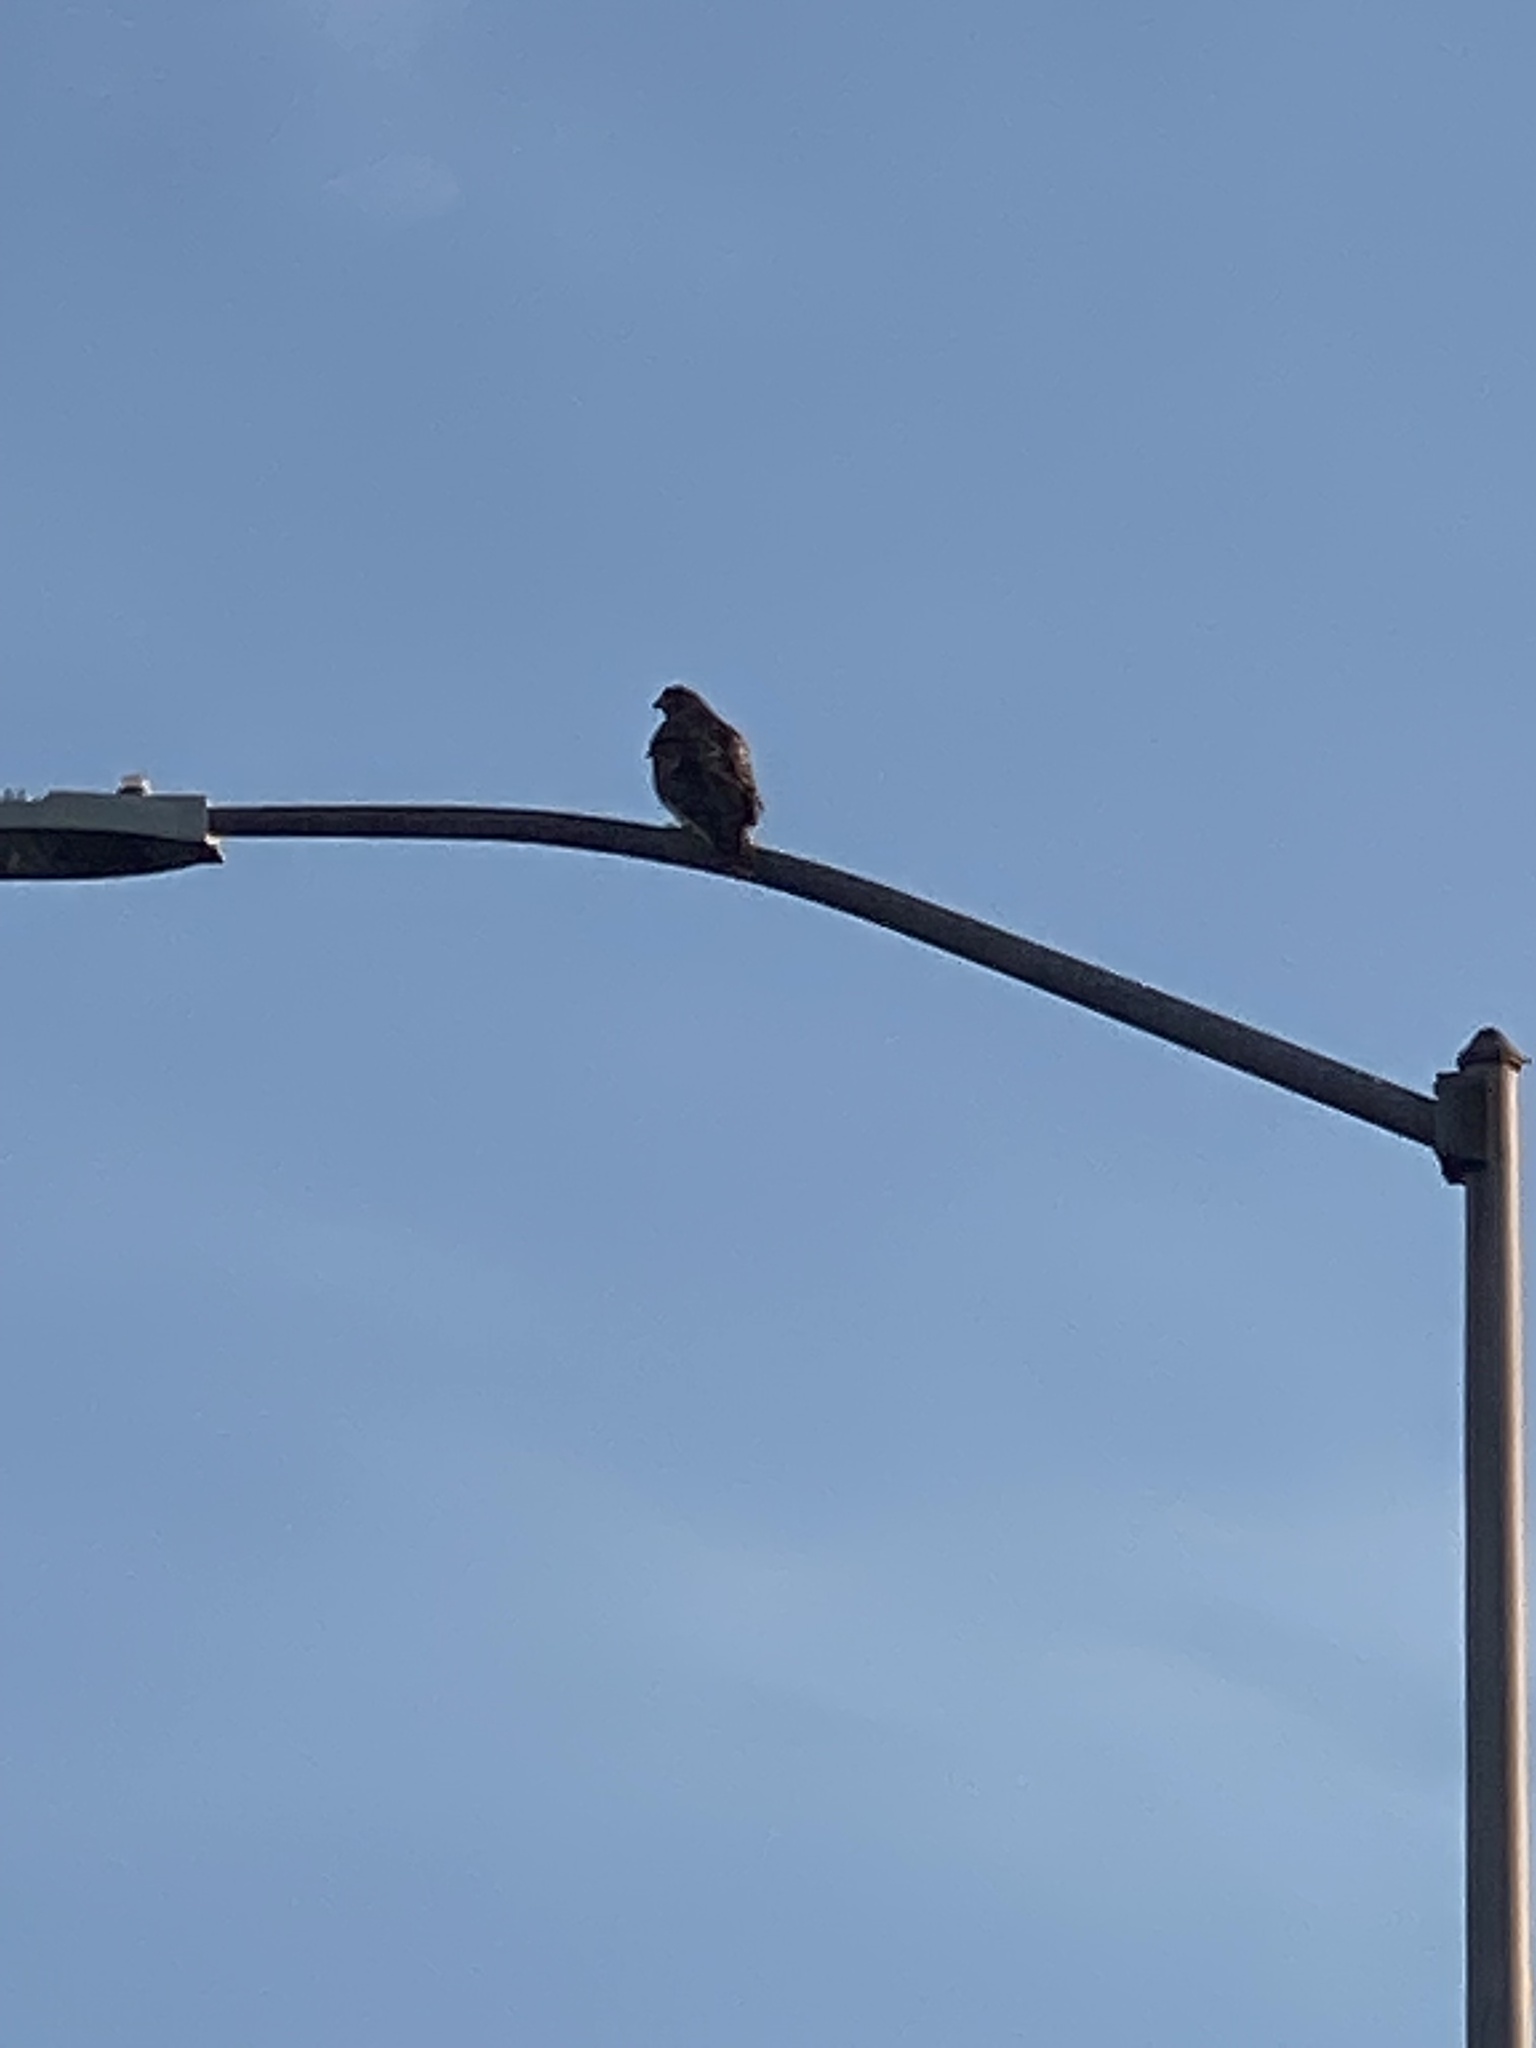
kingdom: Animalia
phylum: Chordata
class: Aves
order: Accipitriformes
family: Accipitridae
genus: Buteo
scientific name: Buteo jamaicensis
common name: Red-tailed hawk
